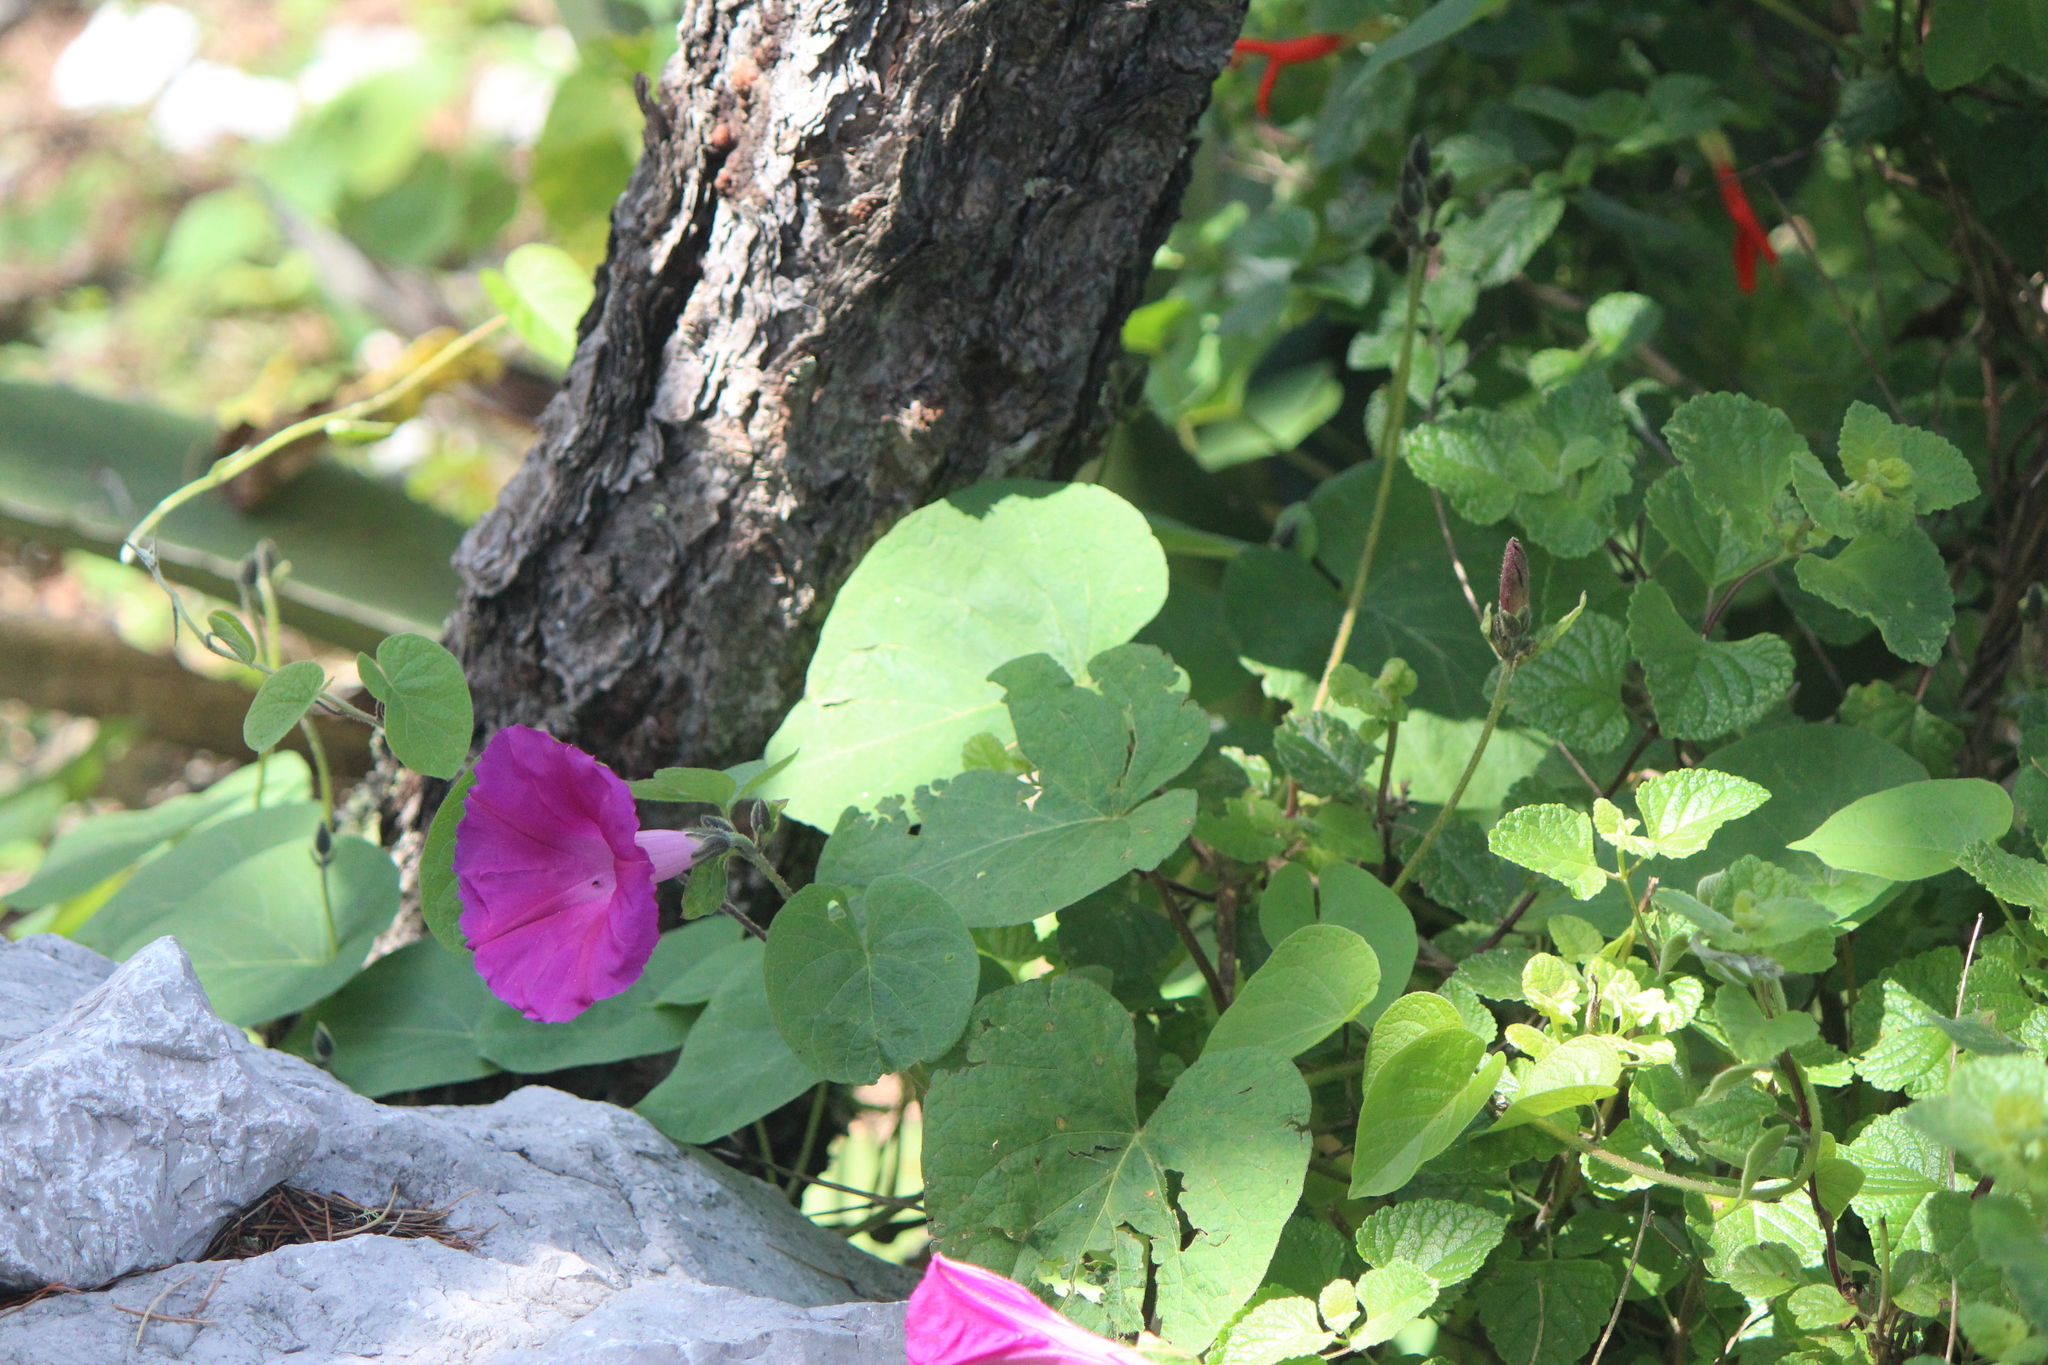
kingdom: Plantae
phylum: Tracheophyta
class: Magnoliopsida
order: Solanales
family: Convolvulaceae
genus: Ipomoea
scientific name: Ipomoea orizabensis
